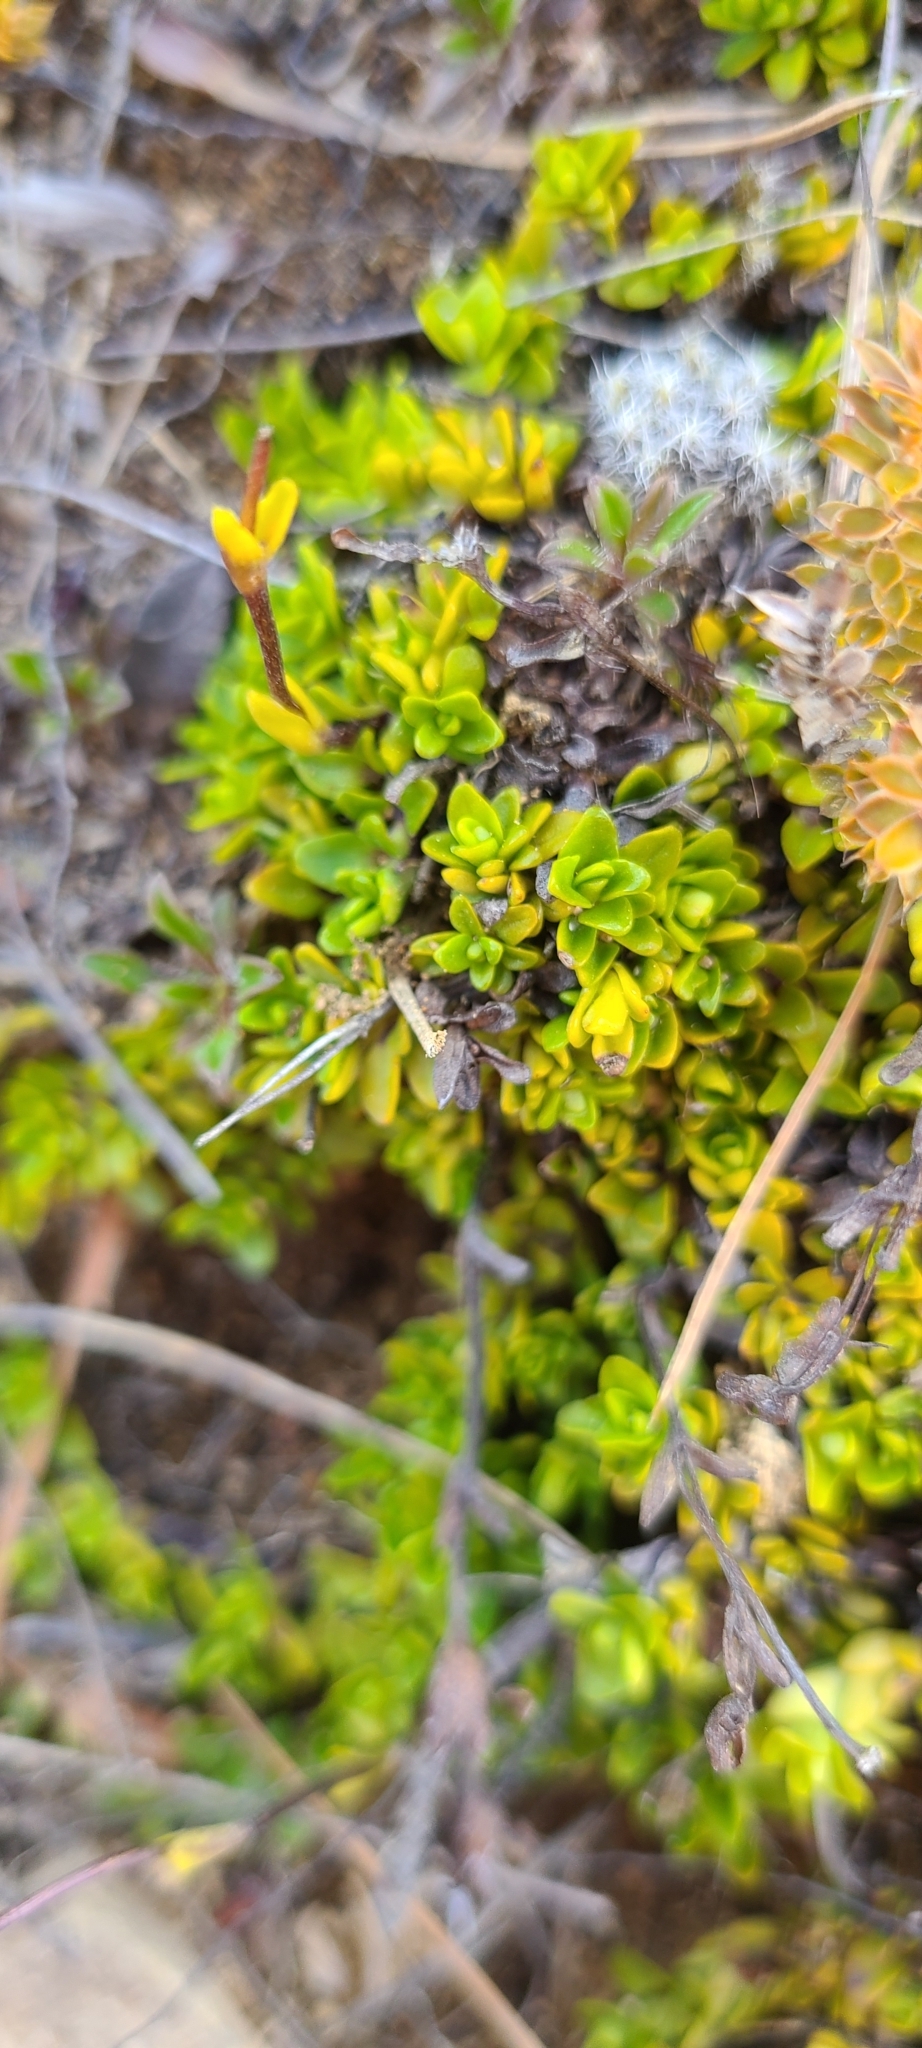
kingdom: Plantae
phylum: Tracheophyta
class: Magnoliopsida
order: Lamiales
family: Plantaginaceae
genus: Ourisia
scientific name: Ourisia caespitosa
